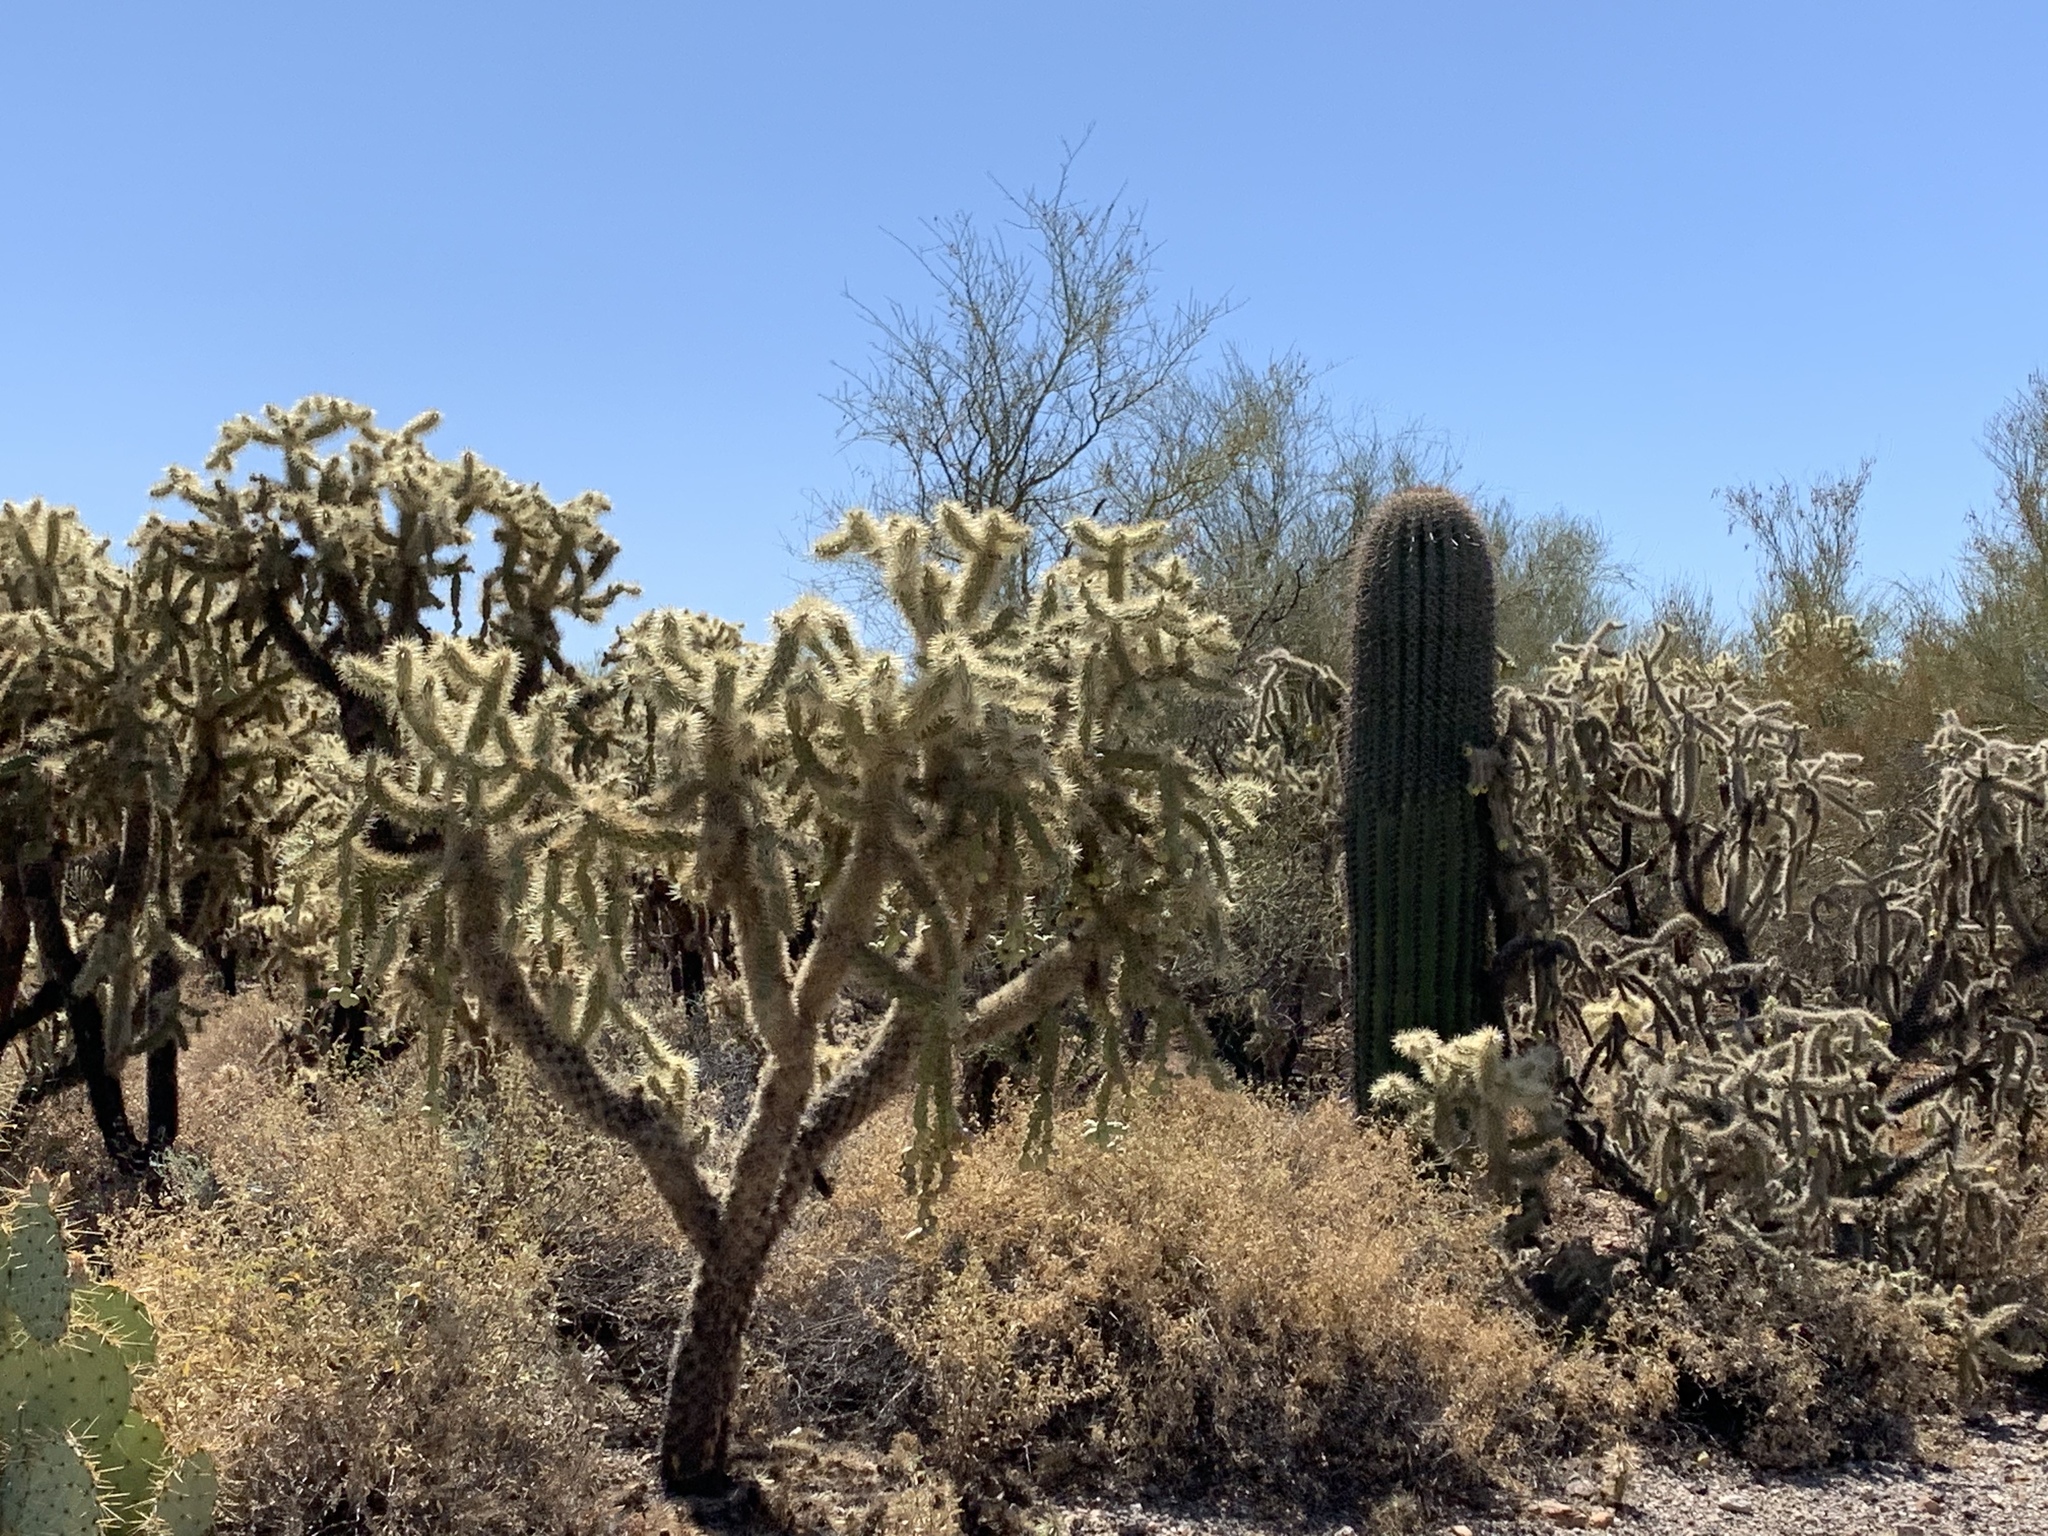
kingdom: Plantae
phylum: Tracheophyta
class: Magnoliopsida
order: Caryophyllales
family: Cactaceae
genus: Cylindropuntia
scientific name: Cylindropuntia fulgida
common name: Jumping cholla
